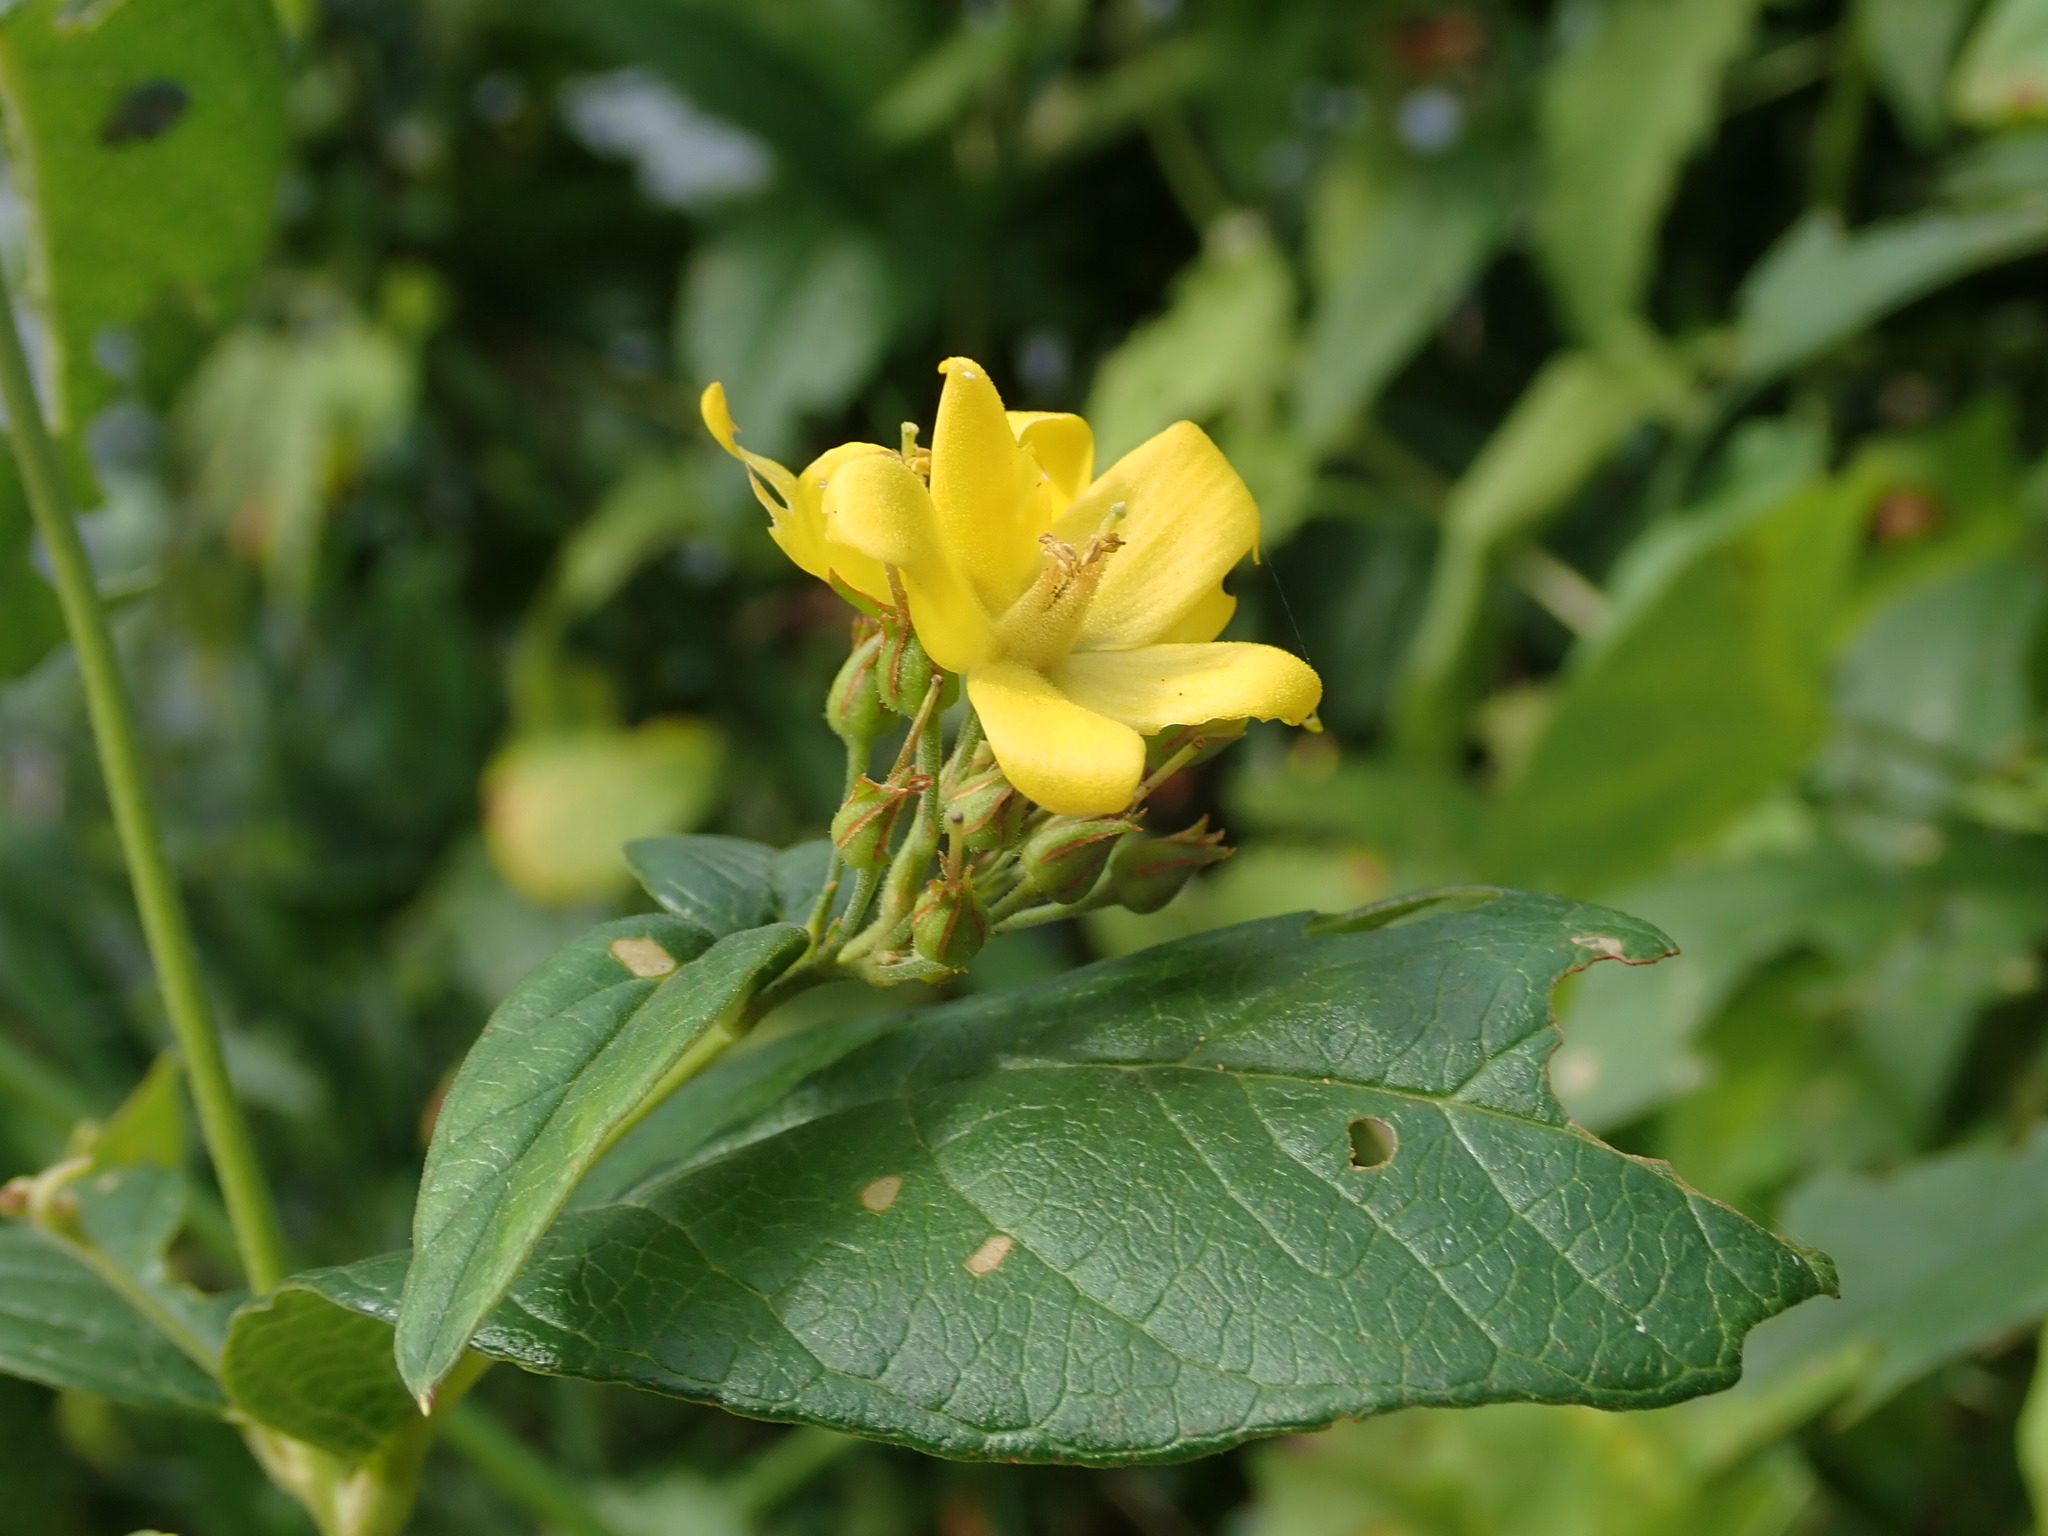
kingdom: Plantae
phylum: Tracheophyta
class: Magnoliopsida
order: Ericales
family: Primulaceae
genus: Lysimachia
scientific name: Lysimachia vulgaris
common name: Yellow loosestrife
